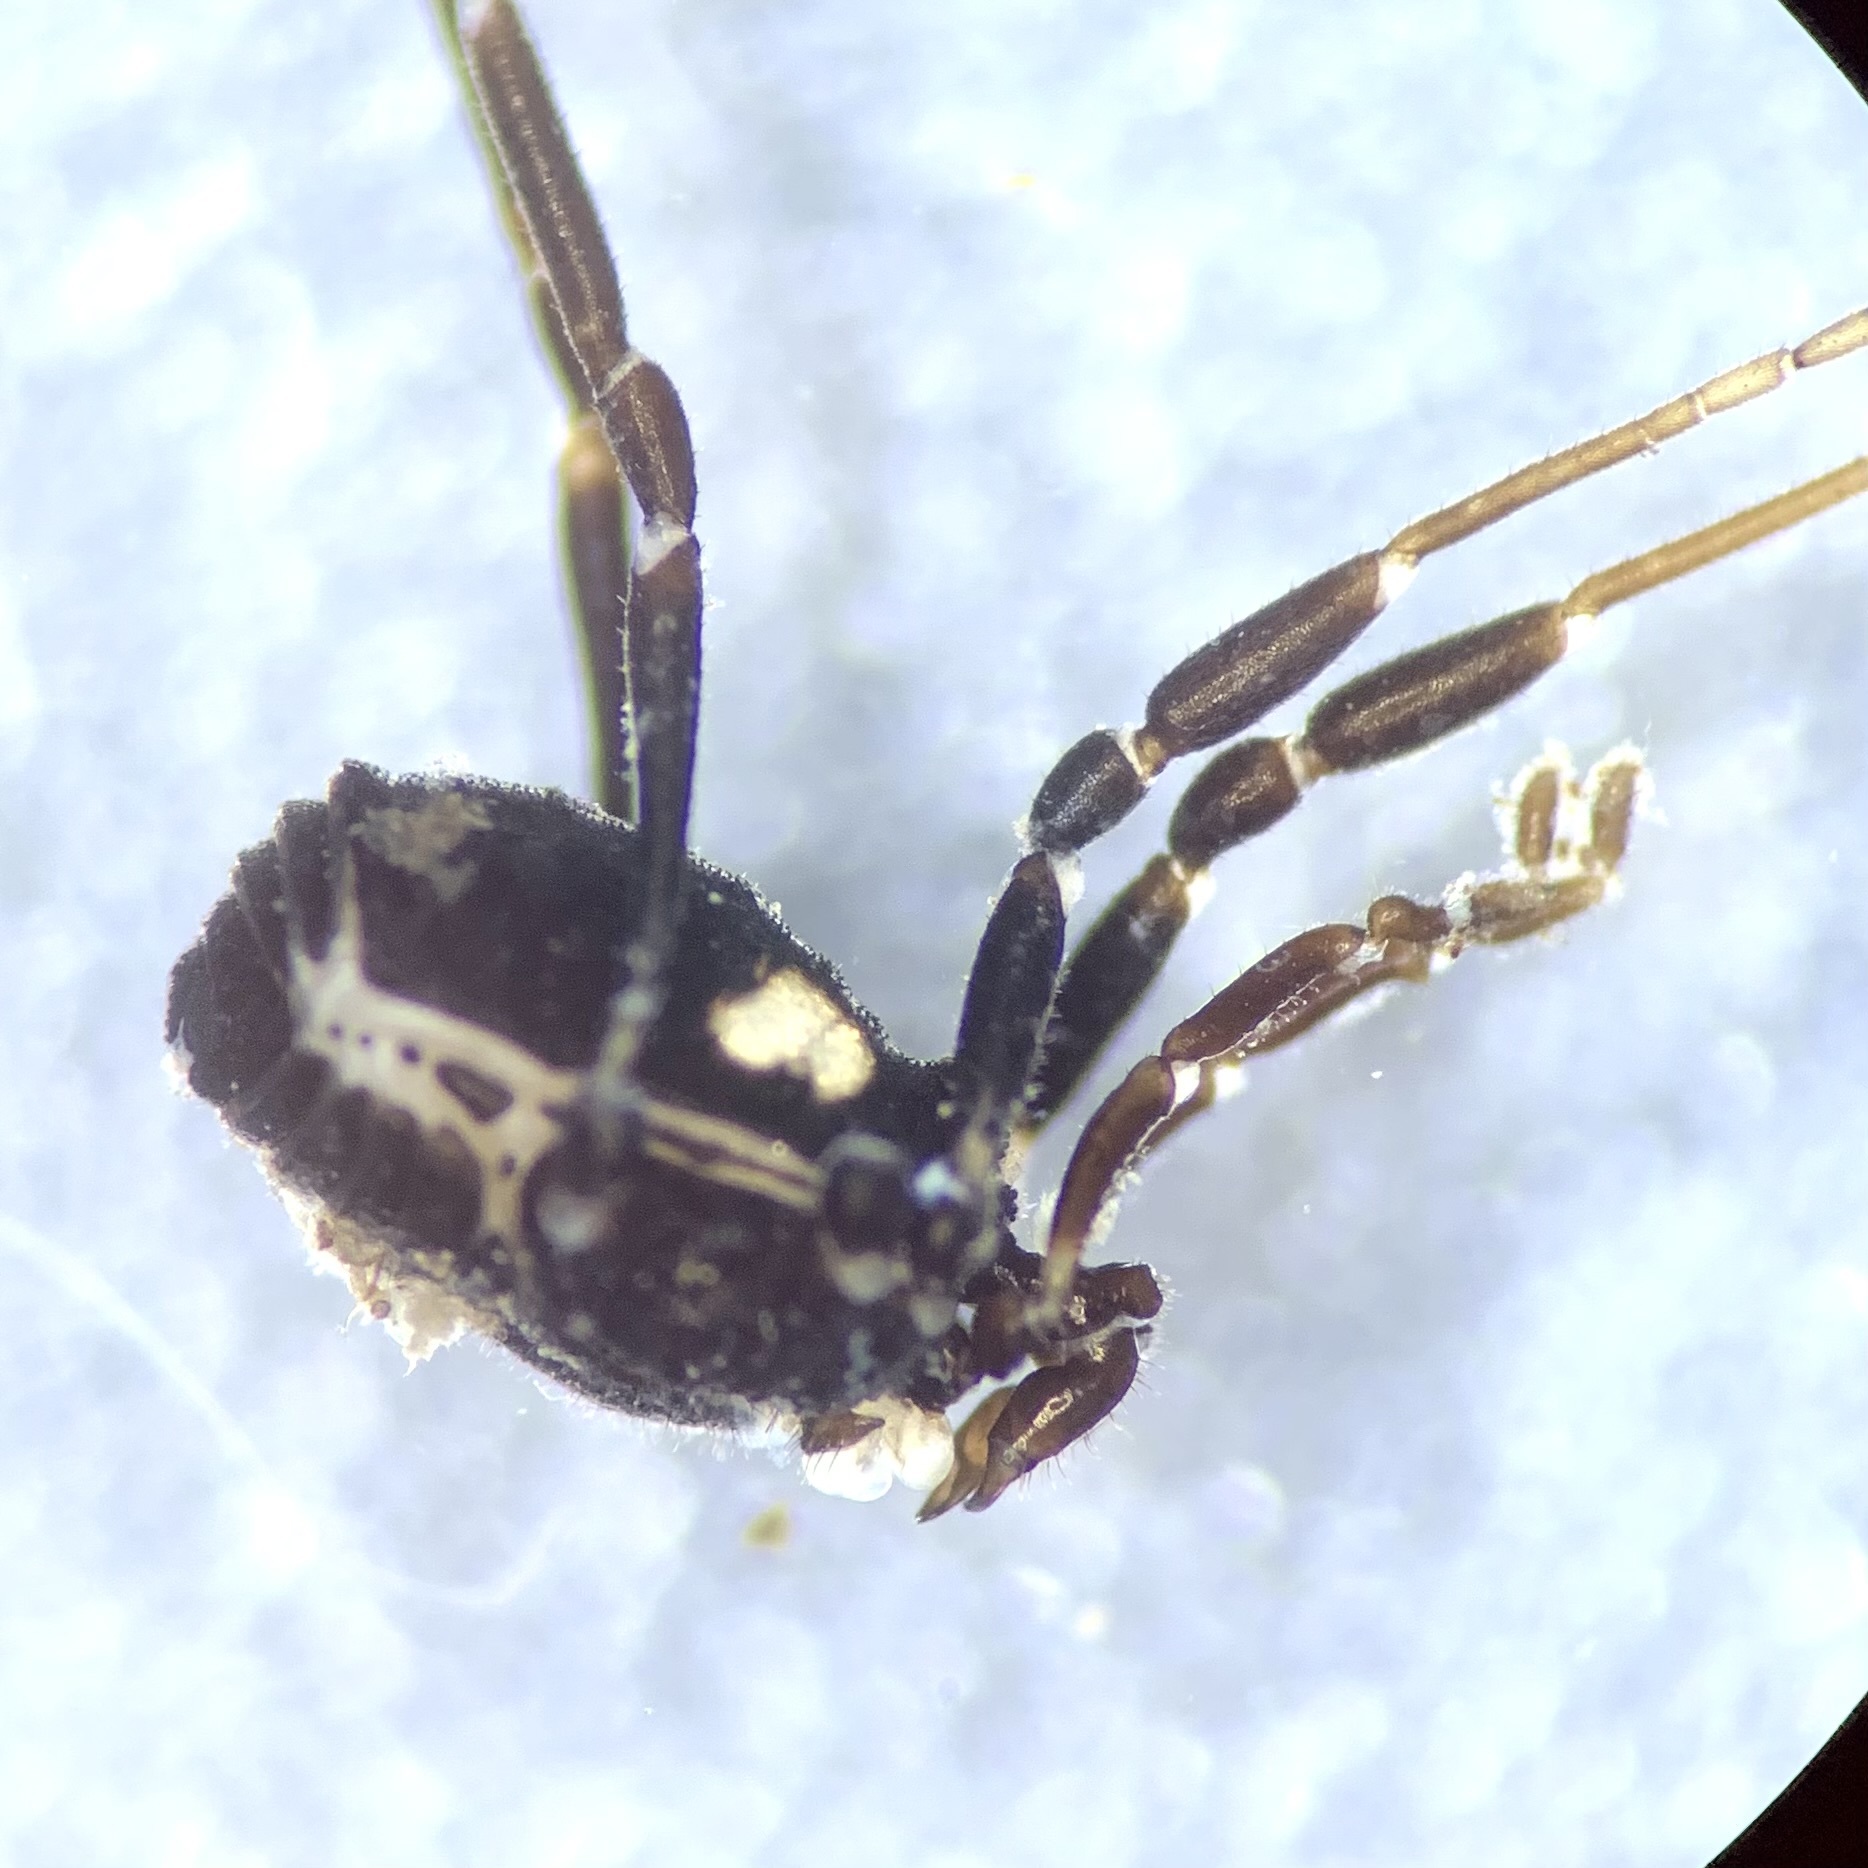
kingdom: Animalia
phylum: Arthropoda
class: Arachnida
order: Opiliones
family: Nemastomatidae
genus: Nemastoma
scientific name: Nemastoma bimaculatum
